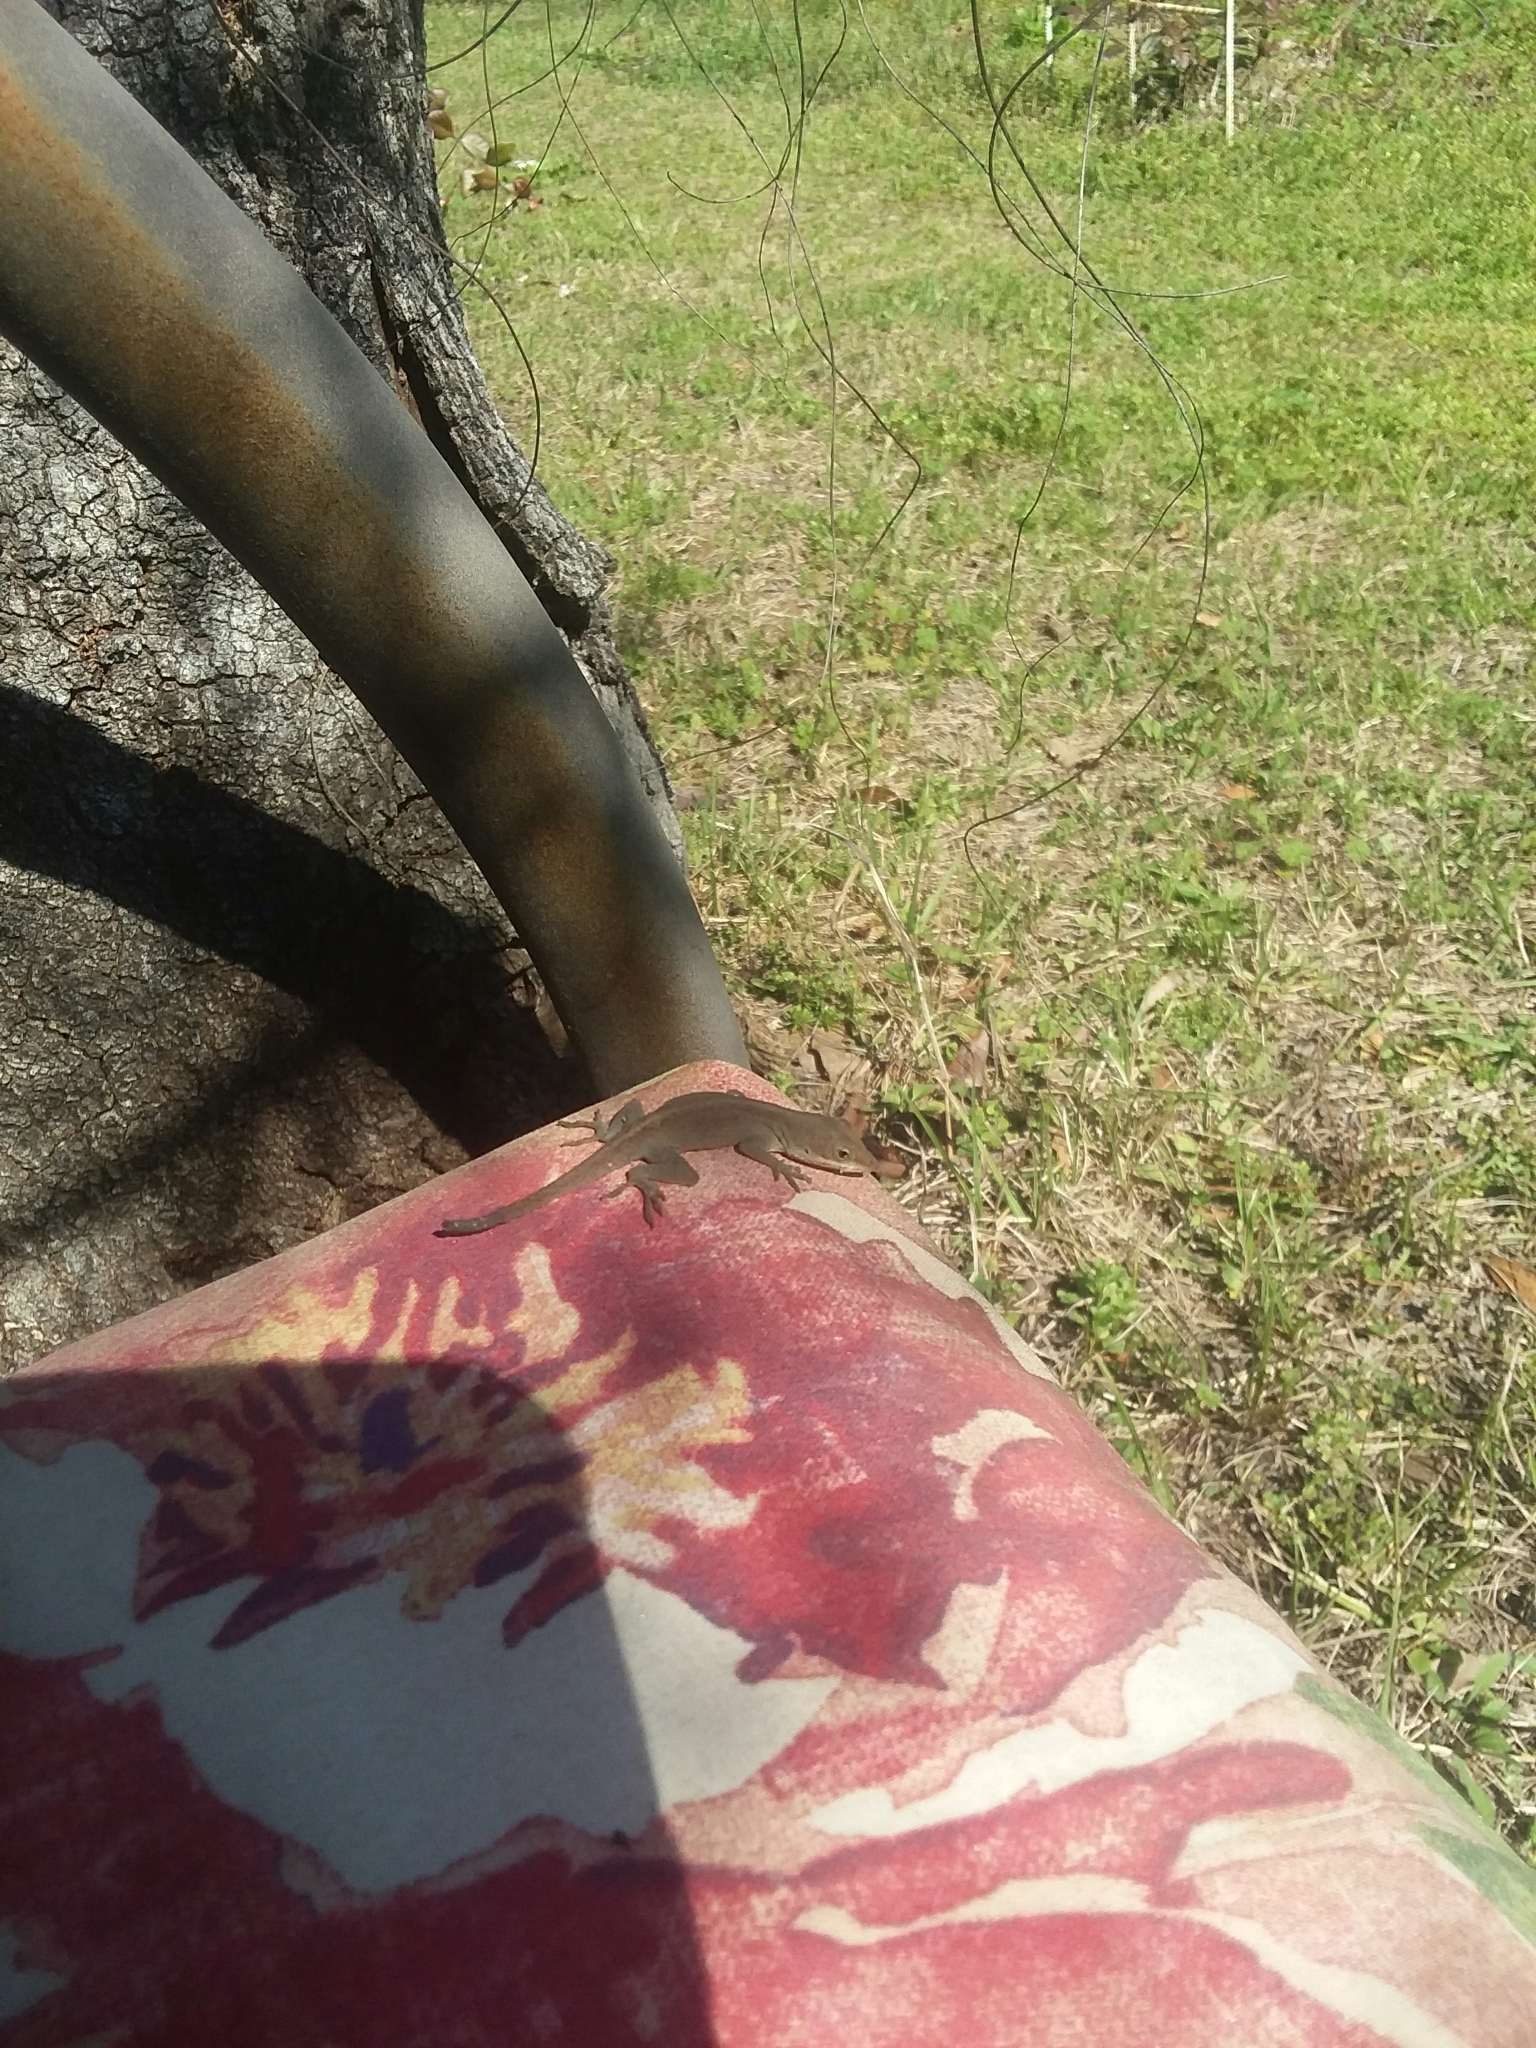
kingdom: Animalia
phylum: Chordata
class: Squamata
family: Dactyloidae
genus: Anolis
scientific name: Anolis carolinensis
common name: Green anole
